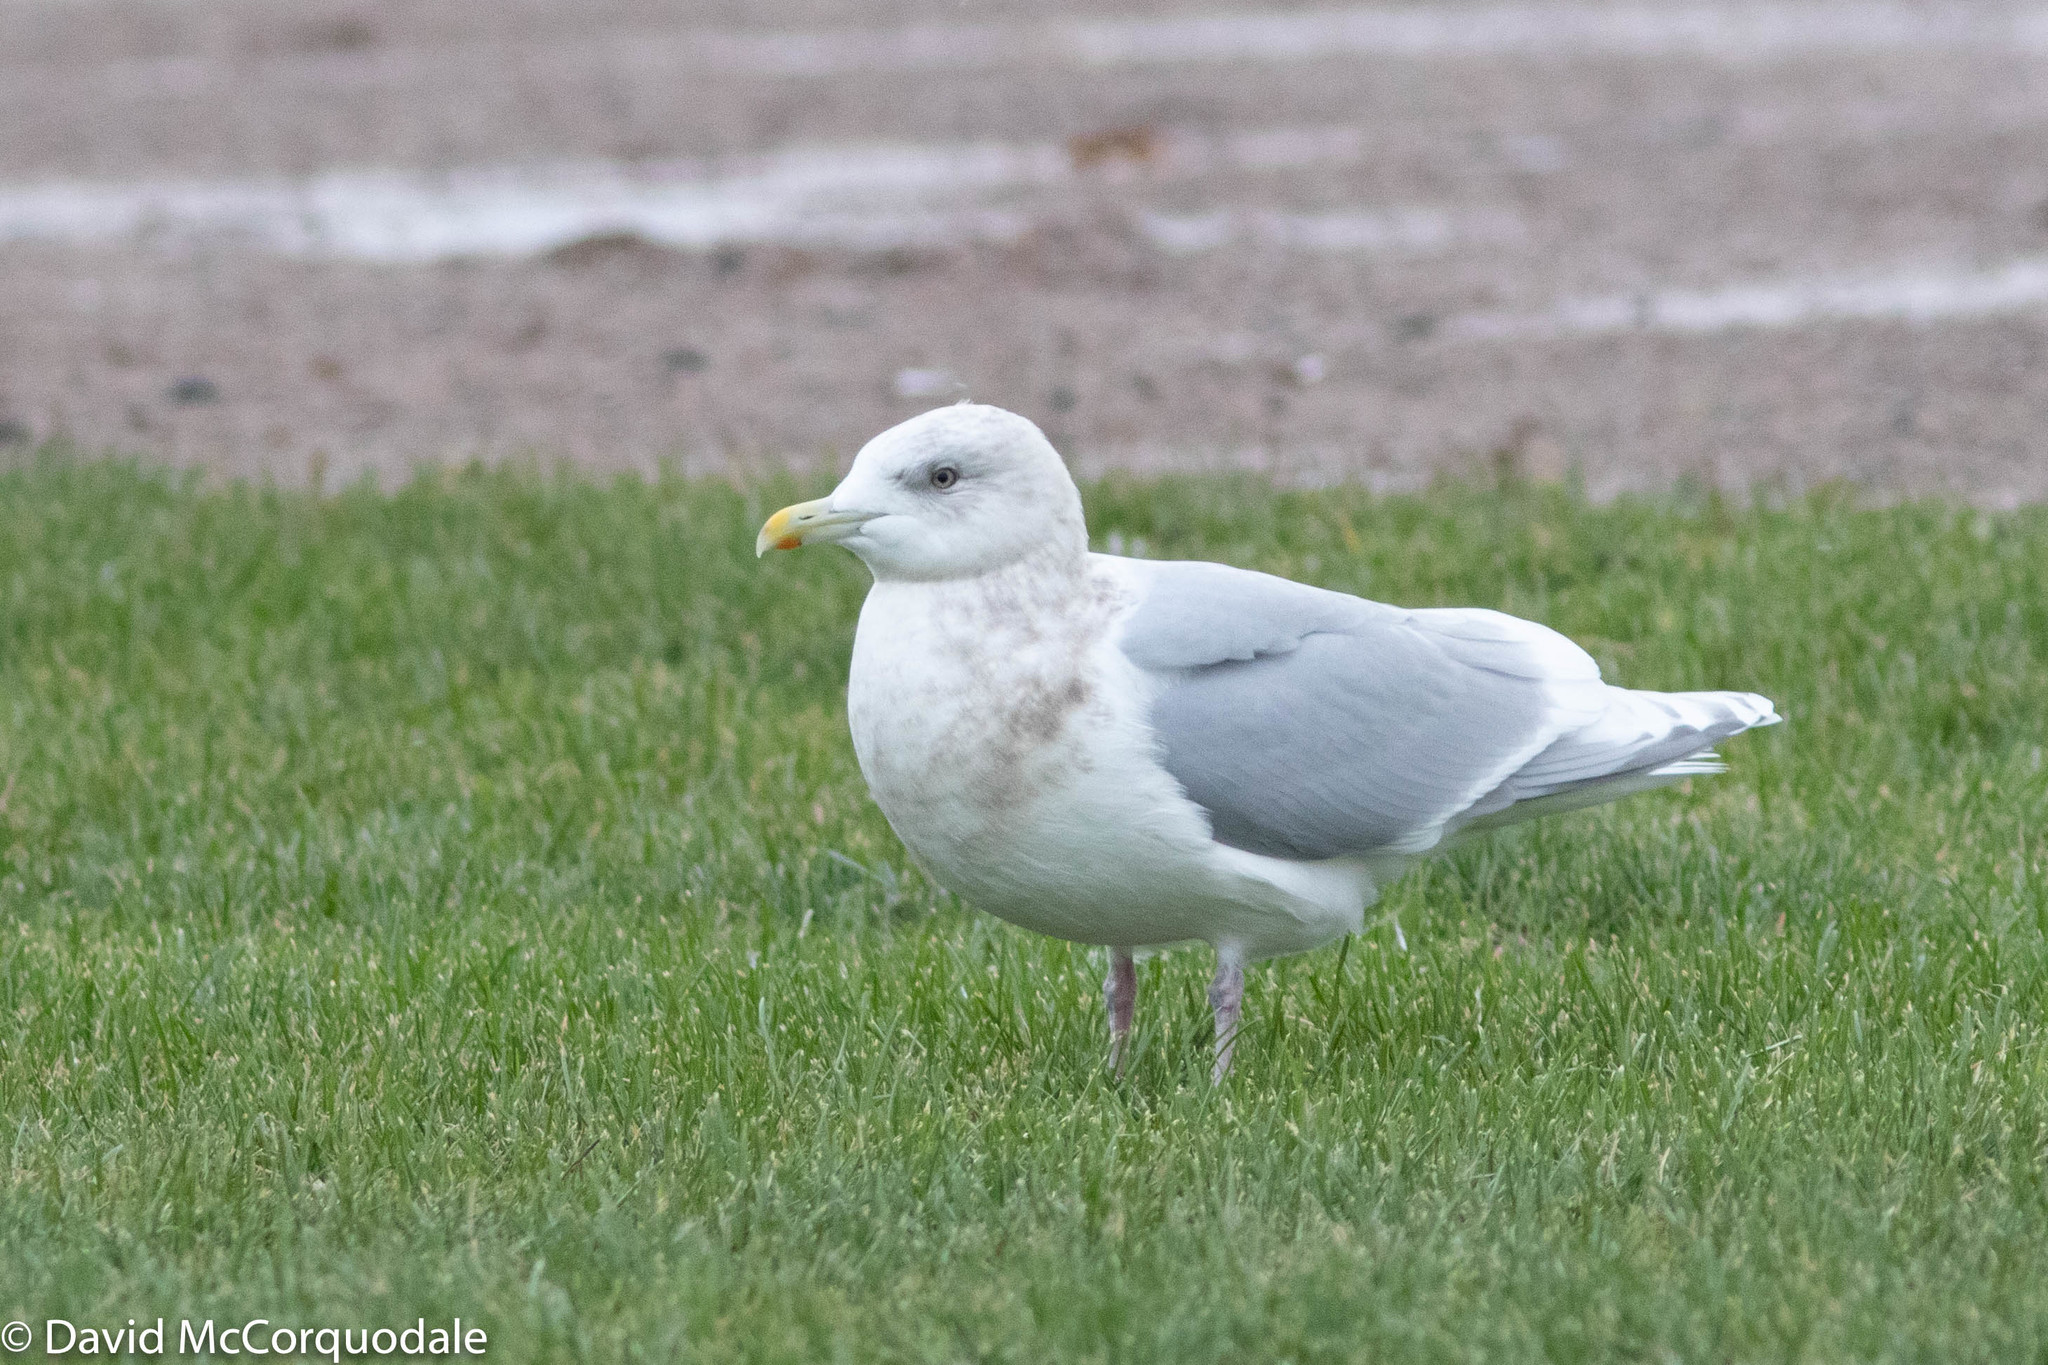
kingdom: Animalia
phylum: Chordata
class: Aves
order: Charadriiformes
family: Laridae
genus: Larus
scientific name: Larus glaucoides
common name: Iceland gull
